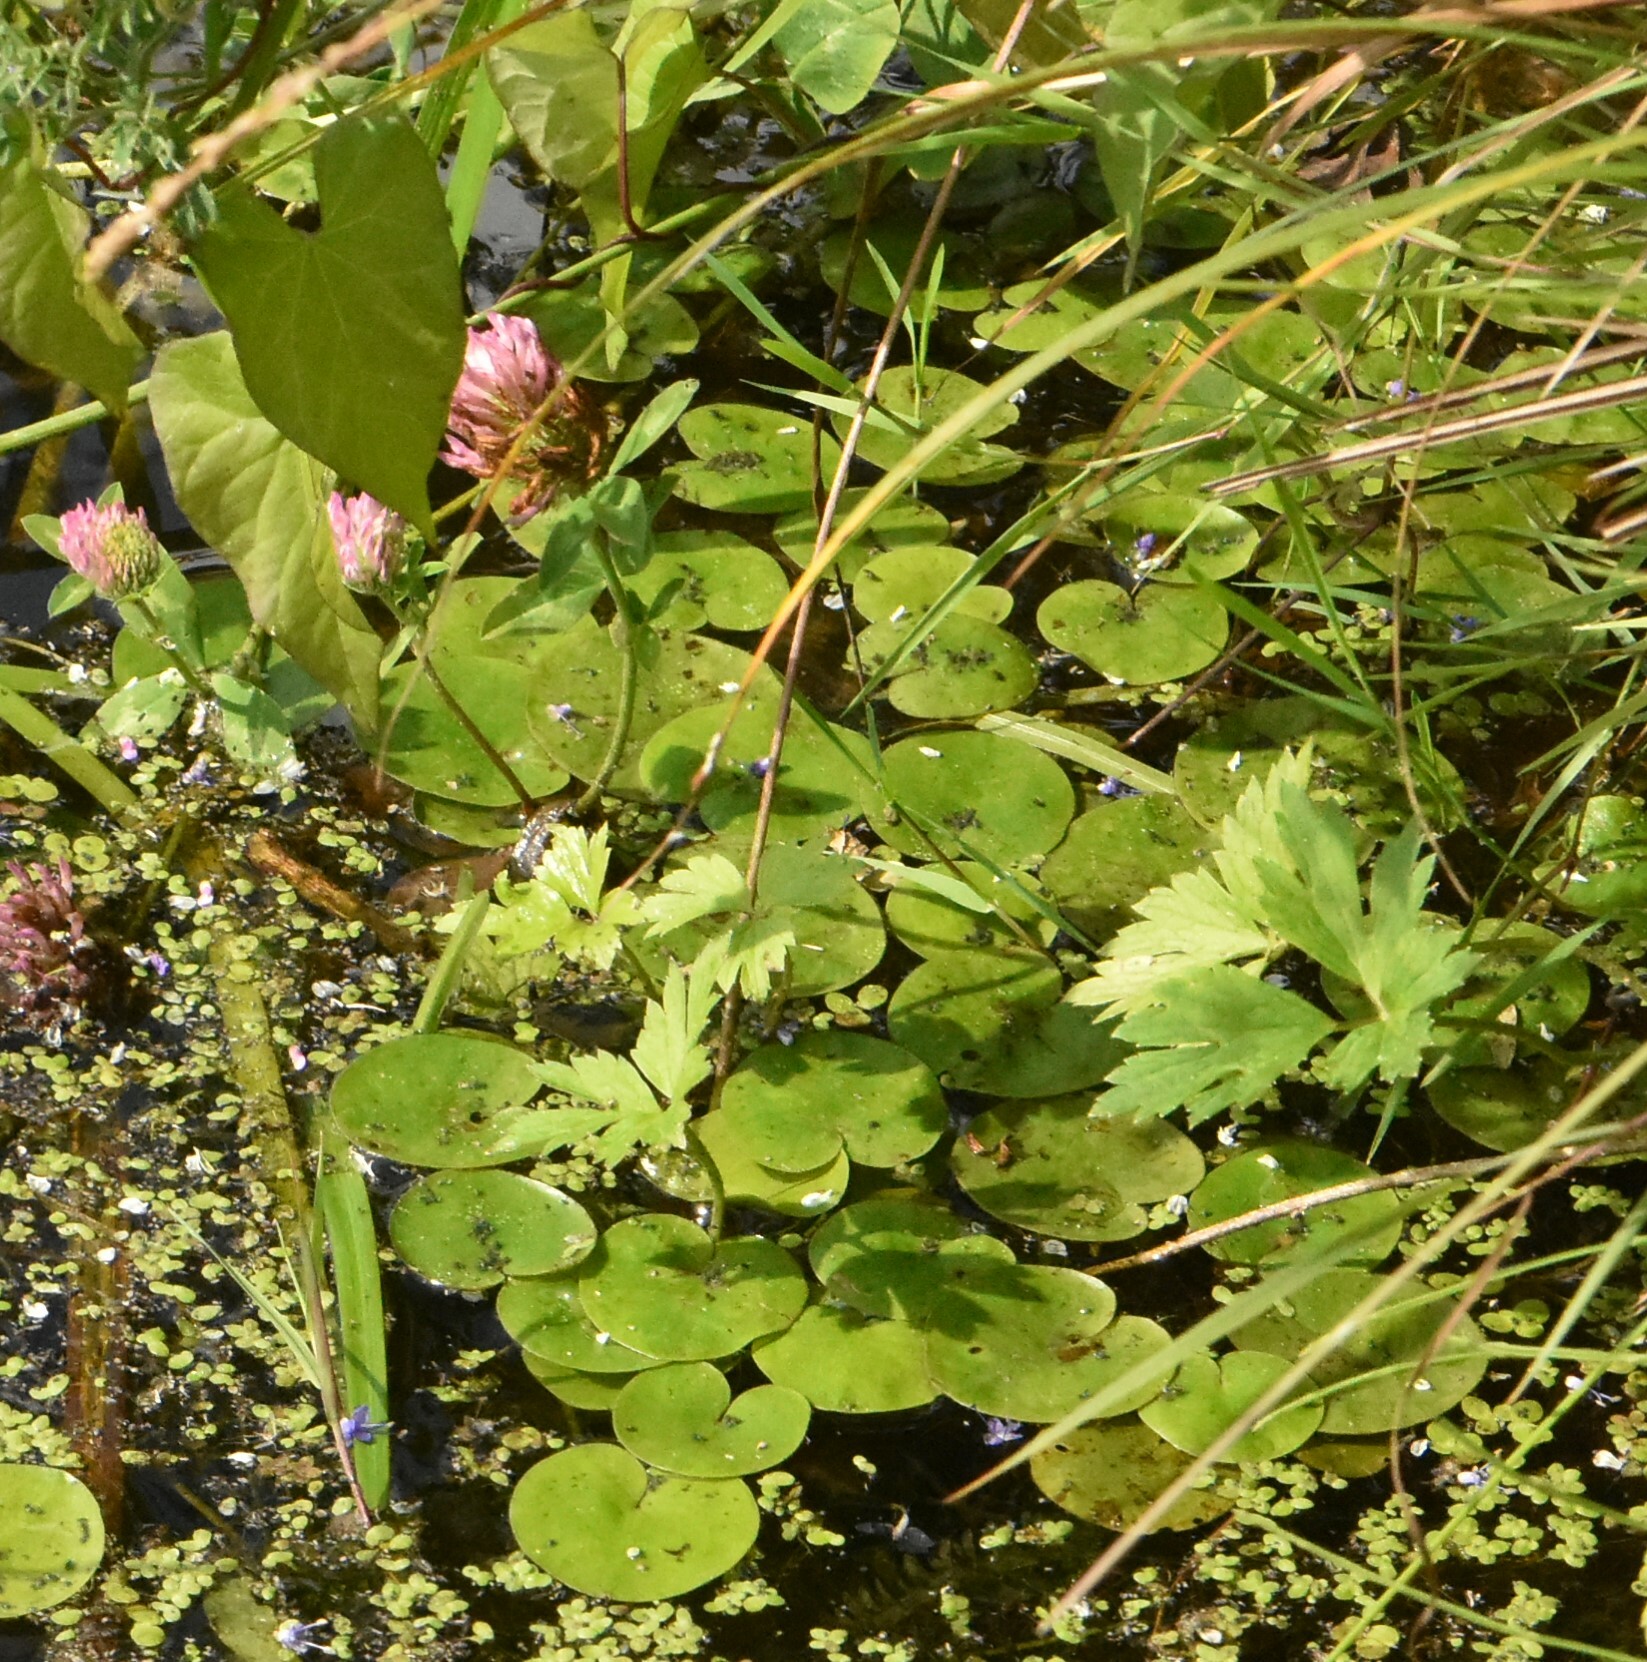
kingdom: Plantae
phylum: Tracheophyta
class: Liliopsida
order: Alismatales
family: Hydrocharitaceae
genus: Hydrocharis
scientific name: Hydrocharis morsus-ranae
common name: Frogbit
